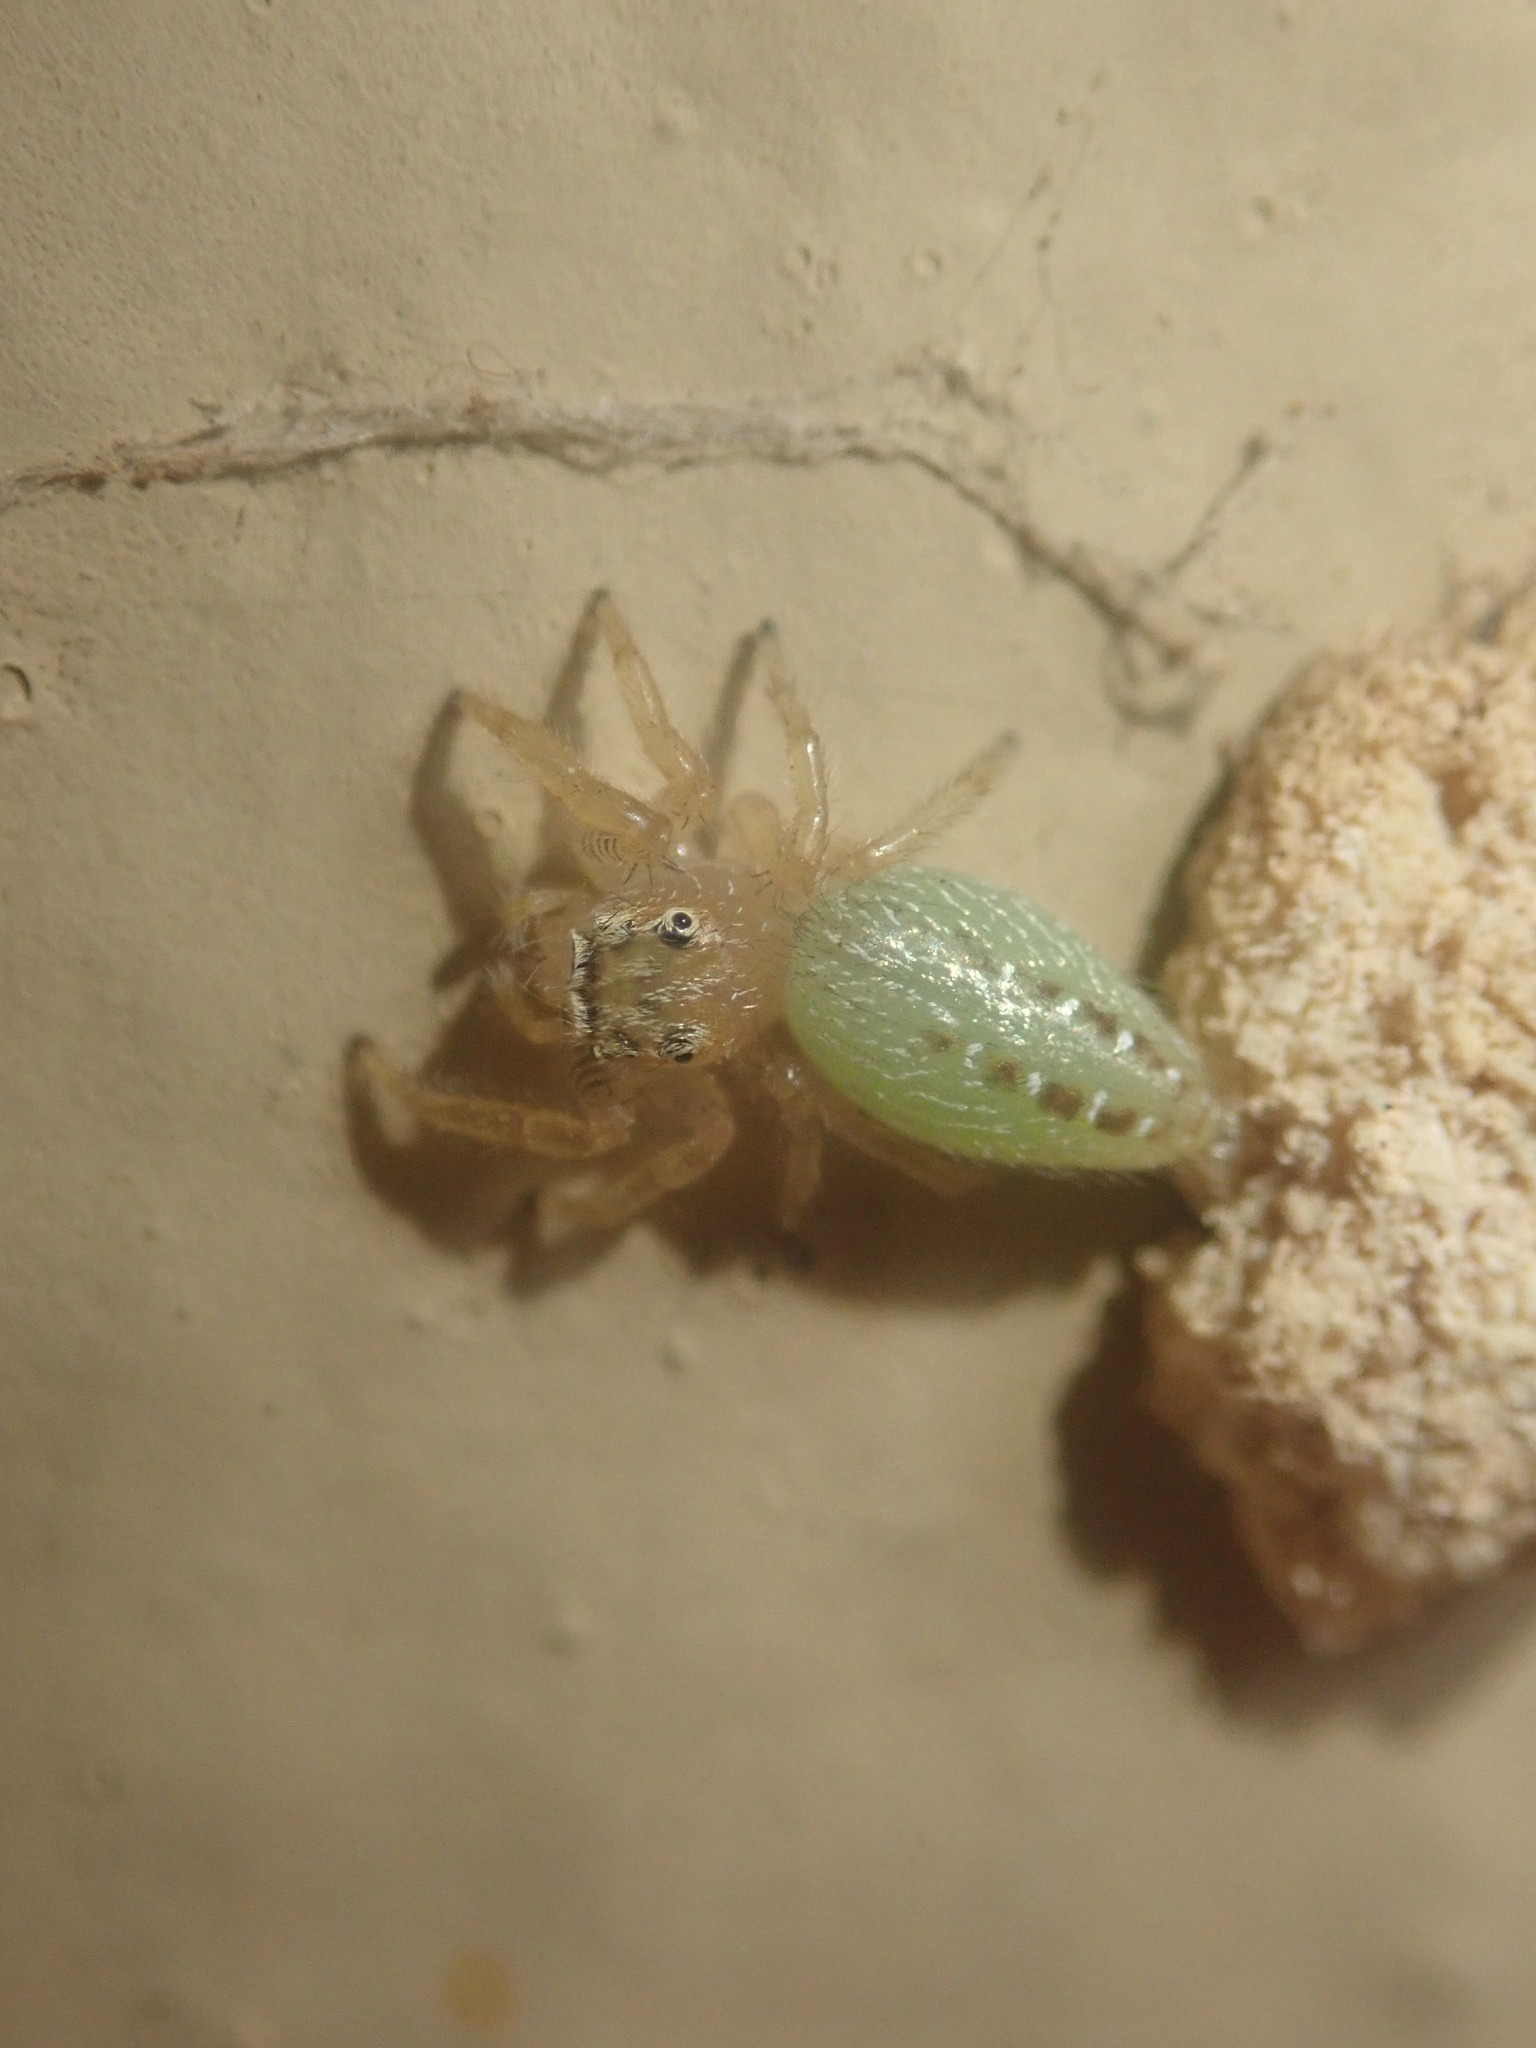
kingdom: Animalia
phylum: Arthropoda
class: Arachnida
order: Araneae
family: Salticidae
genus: Thyene
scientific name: Thyene ogdeni
